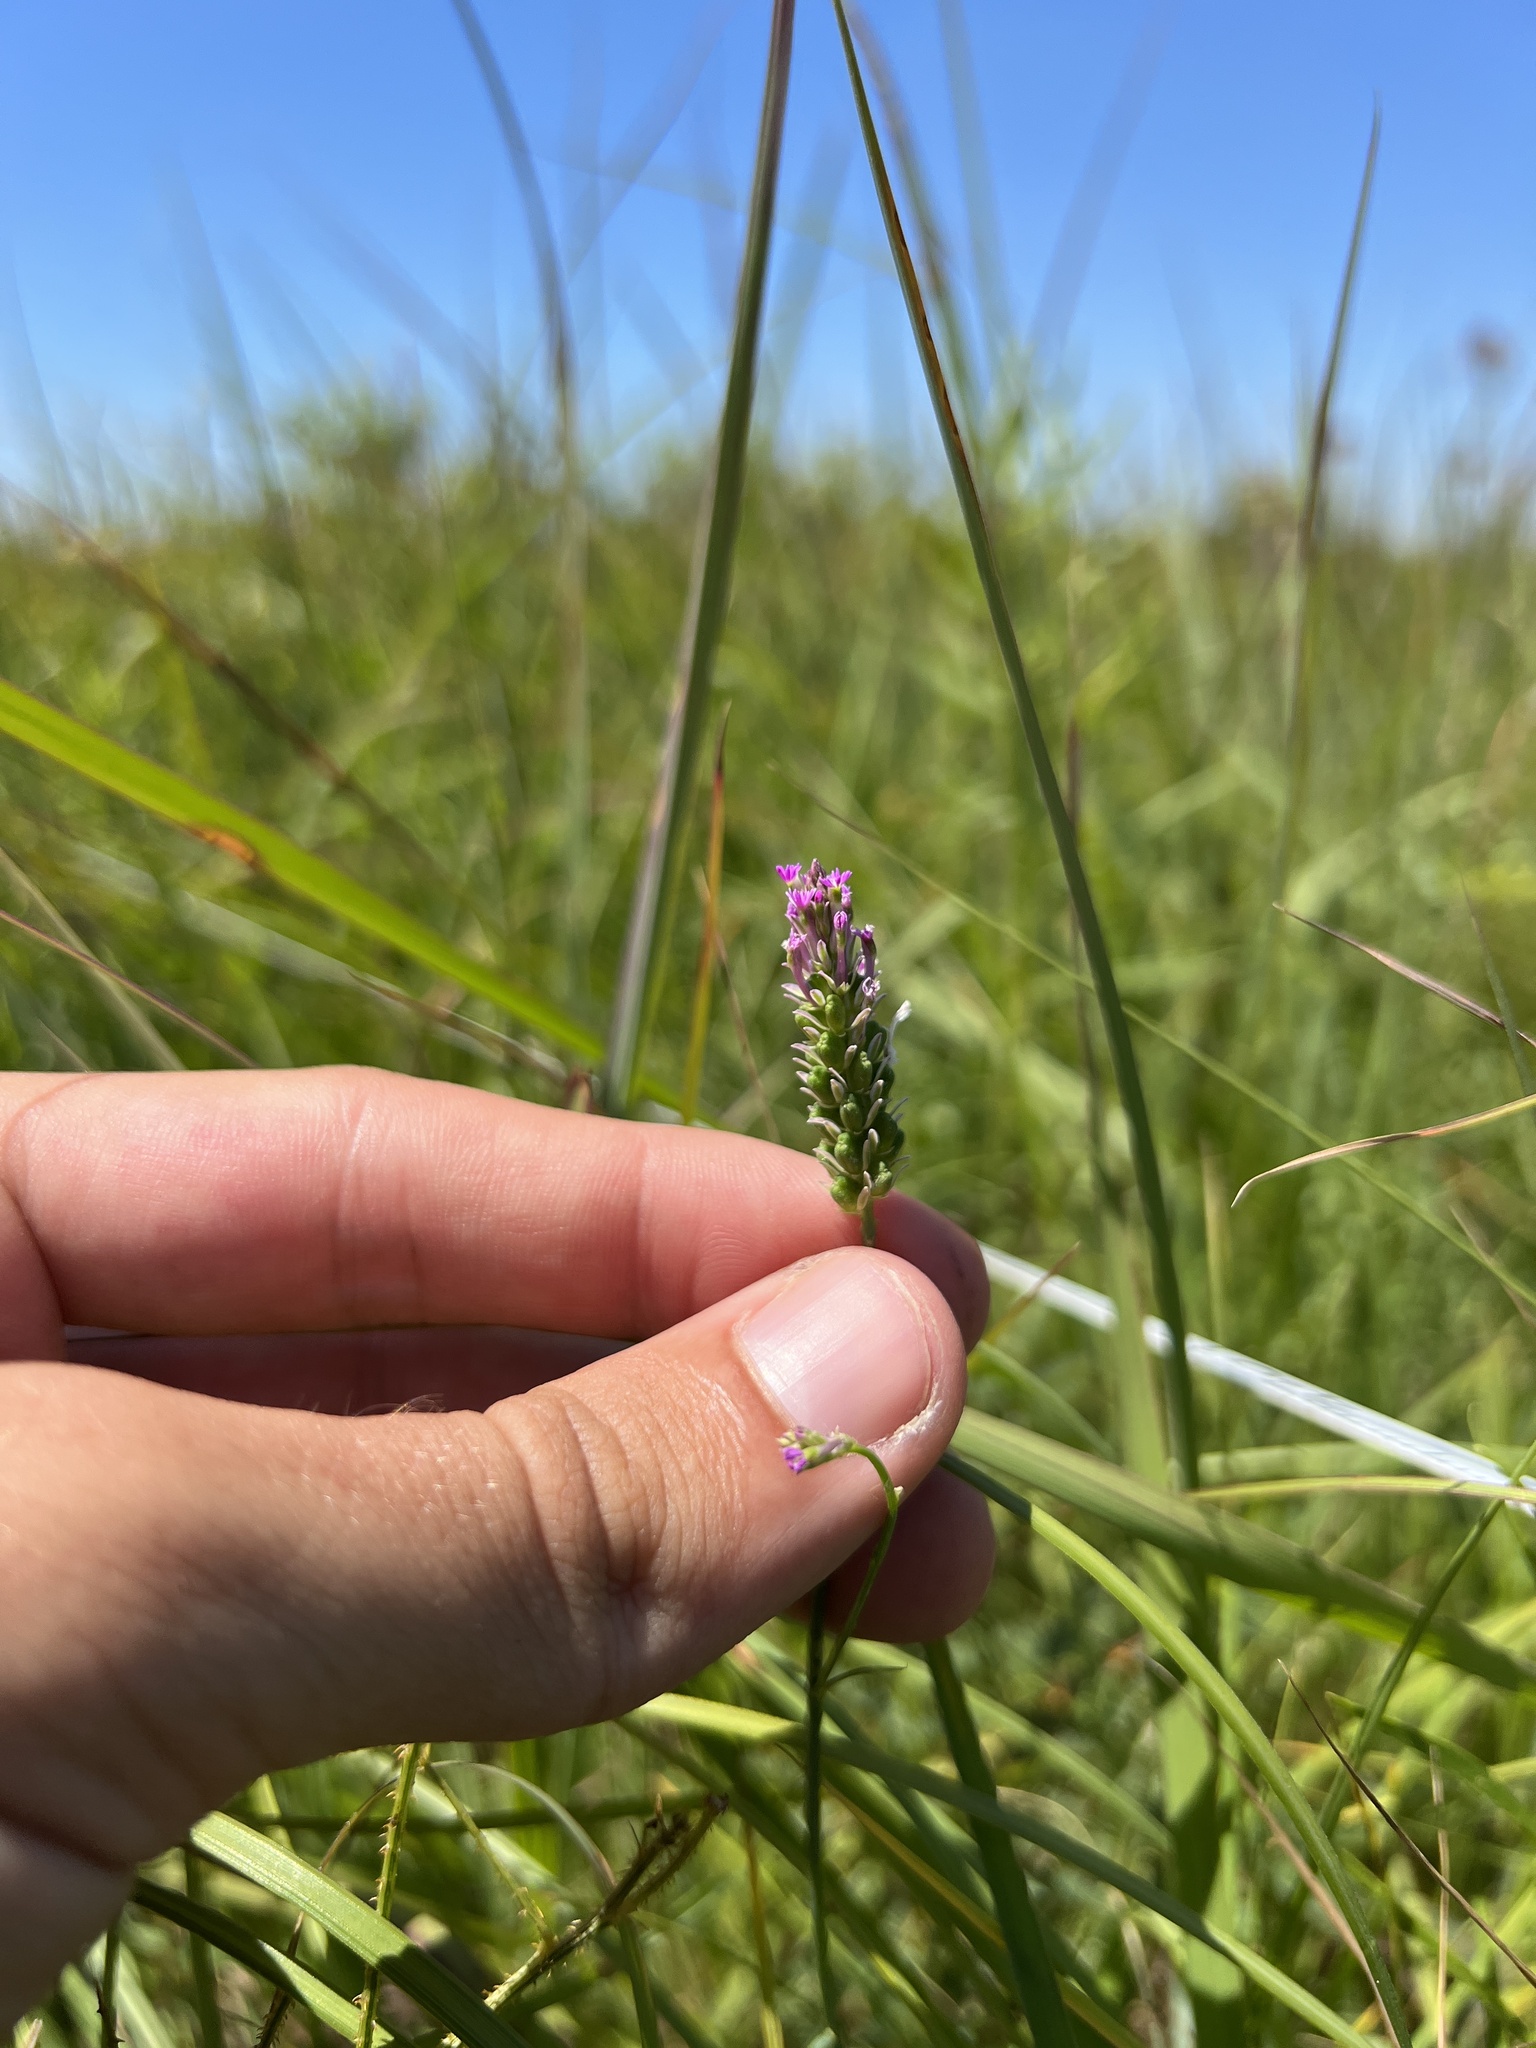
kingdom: Plantae
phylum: Tracheophyta
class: Magnoliopsida
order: Fabales
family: Polygalaceae
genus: Polygala
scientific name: Polygala incarnata
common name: Pink milkwort
